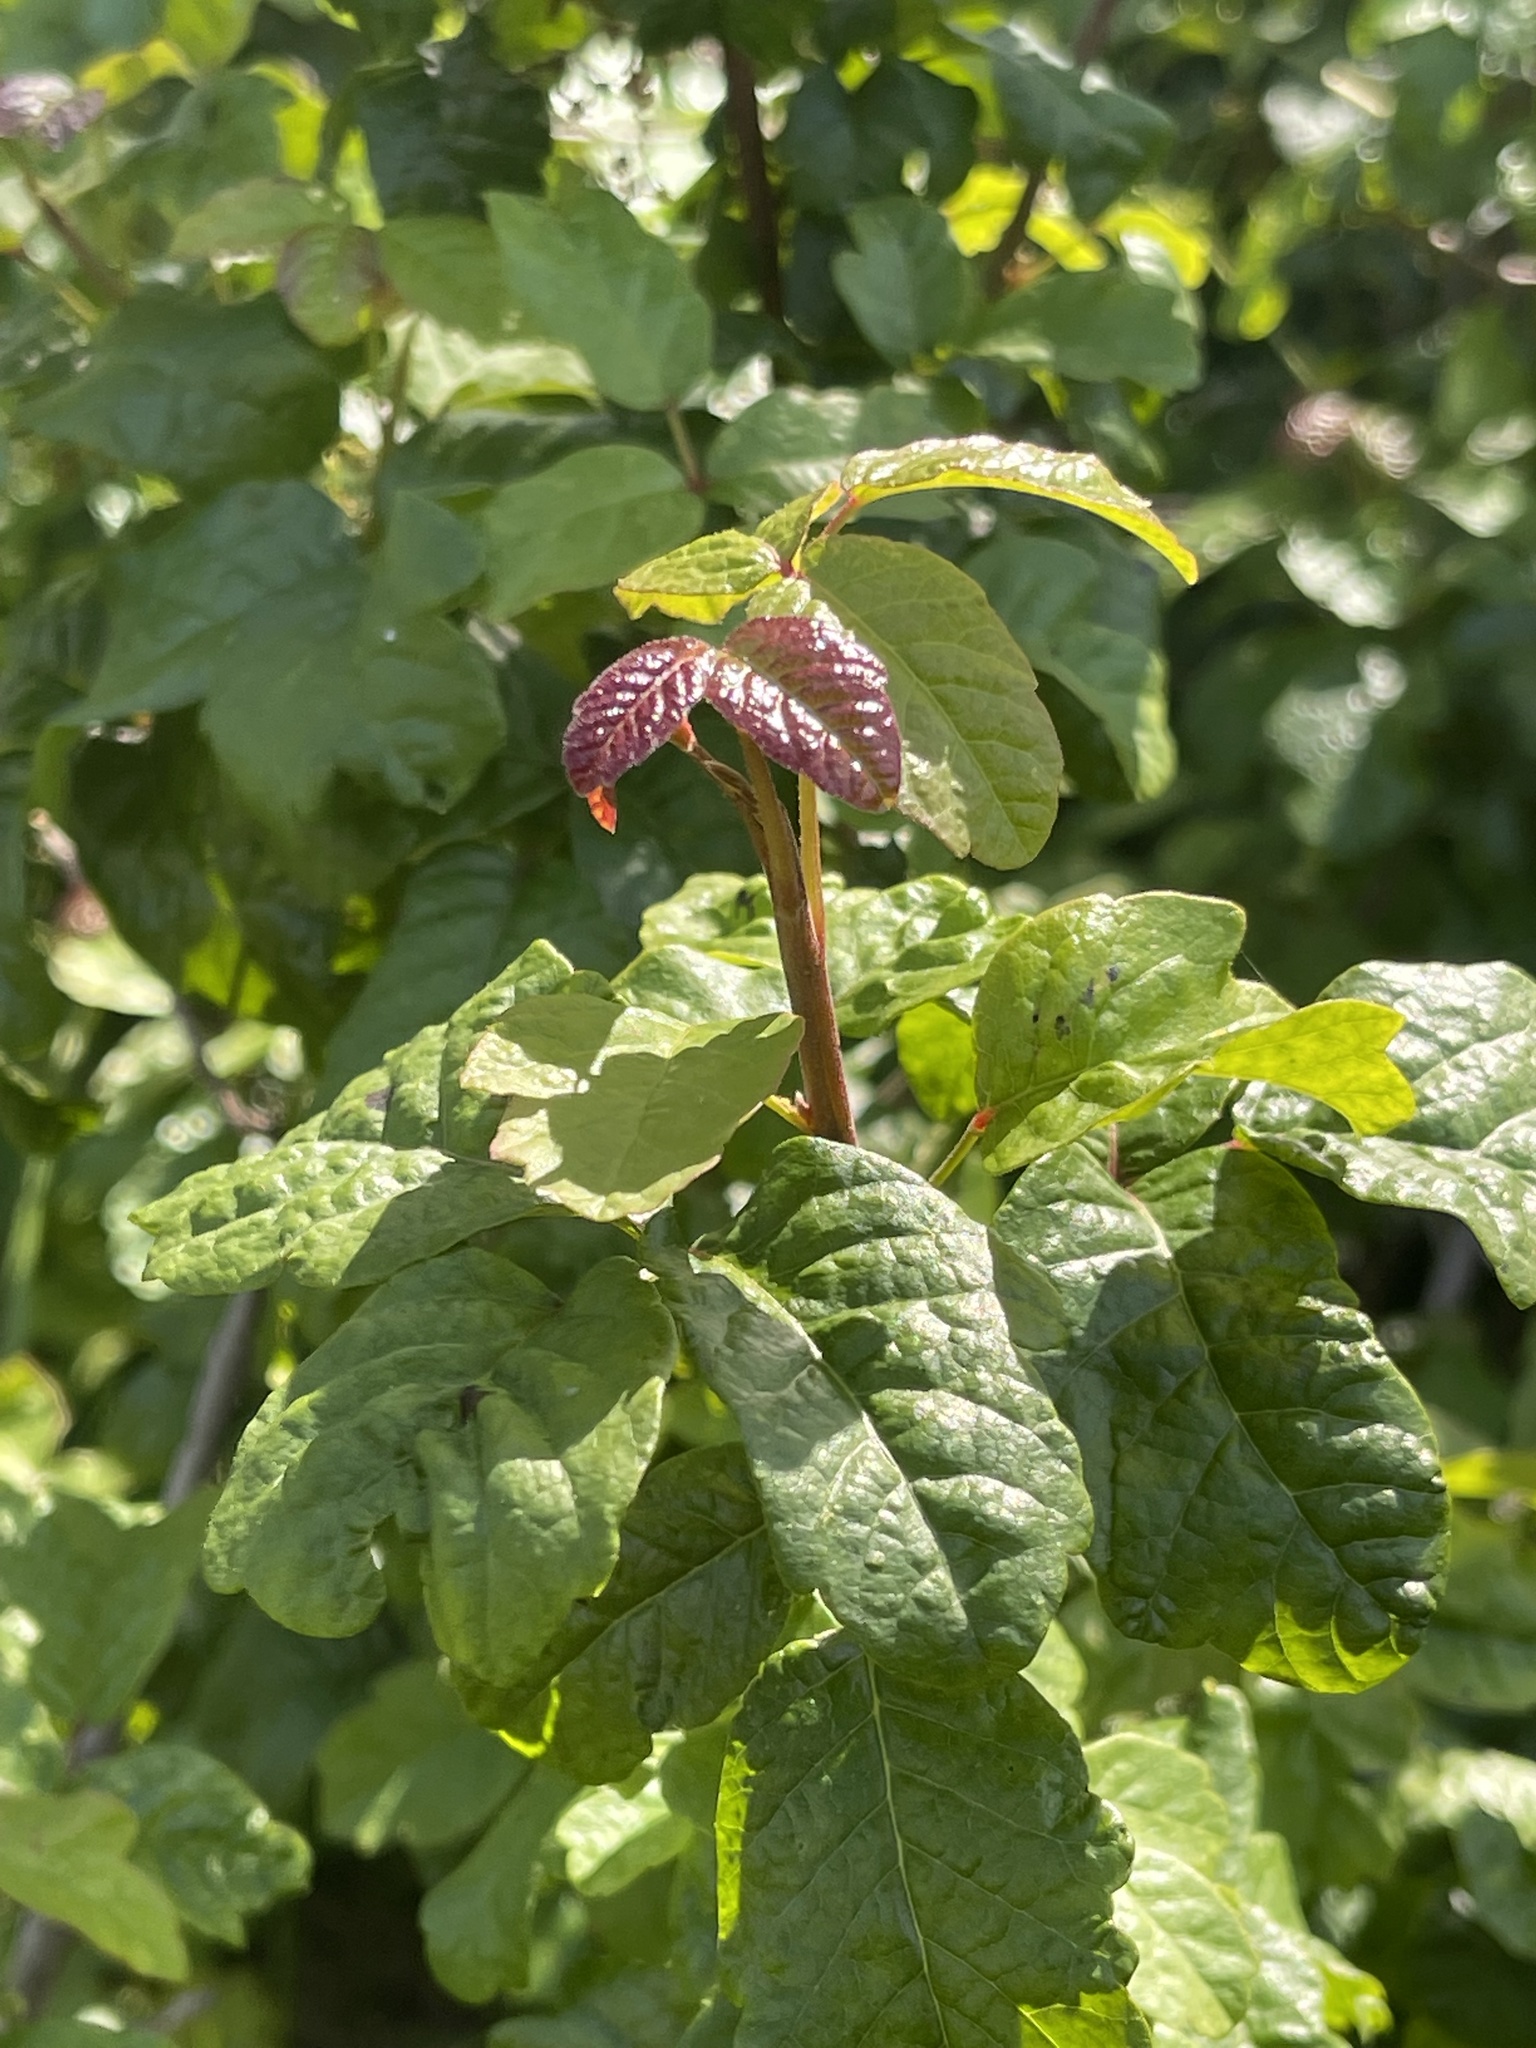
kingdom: Plantae
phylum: Tracheophyta
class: Magnoliopsida
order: Sapindales
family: Anacardiaceae
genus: Toxicodendron
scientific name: Toxicodendron diversilobum
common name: Pacific poison-oak
